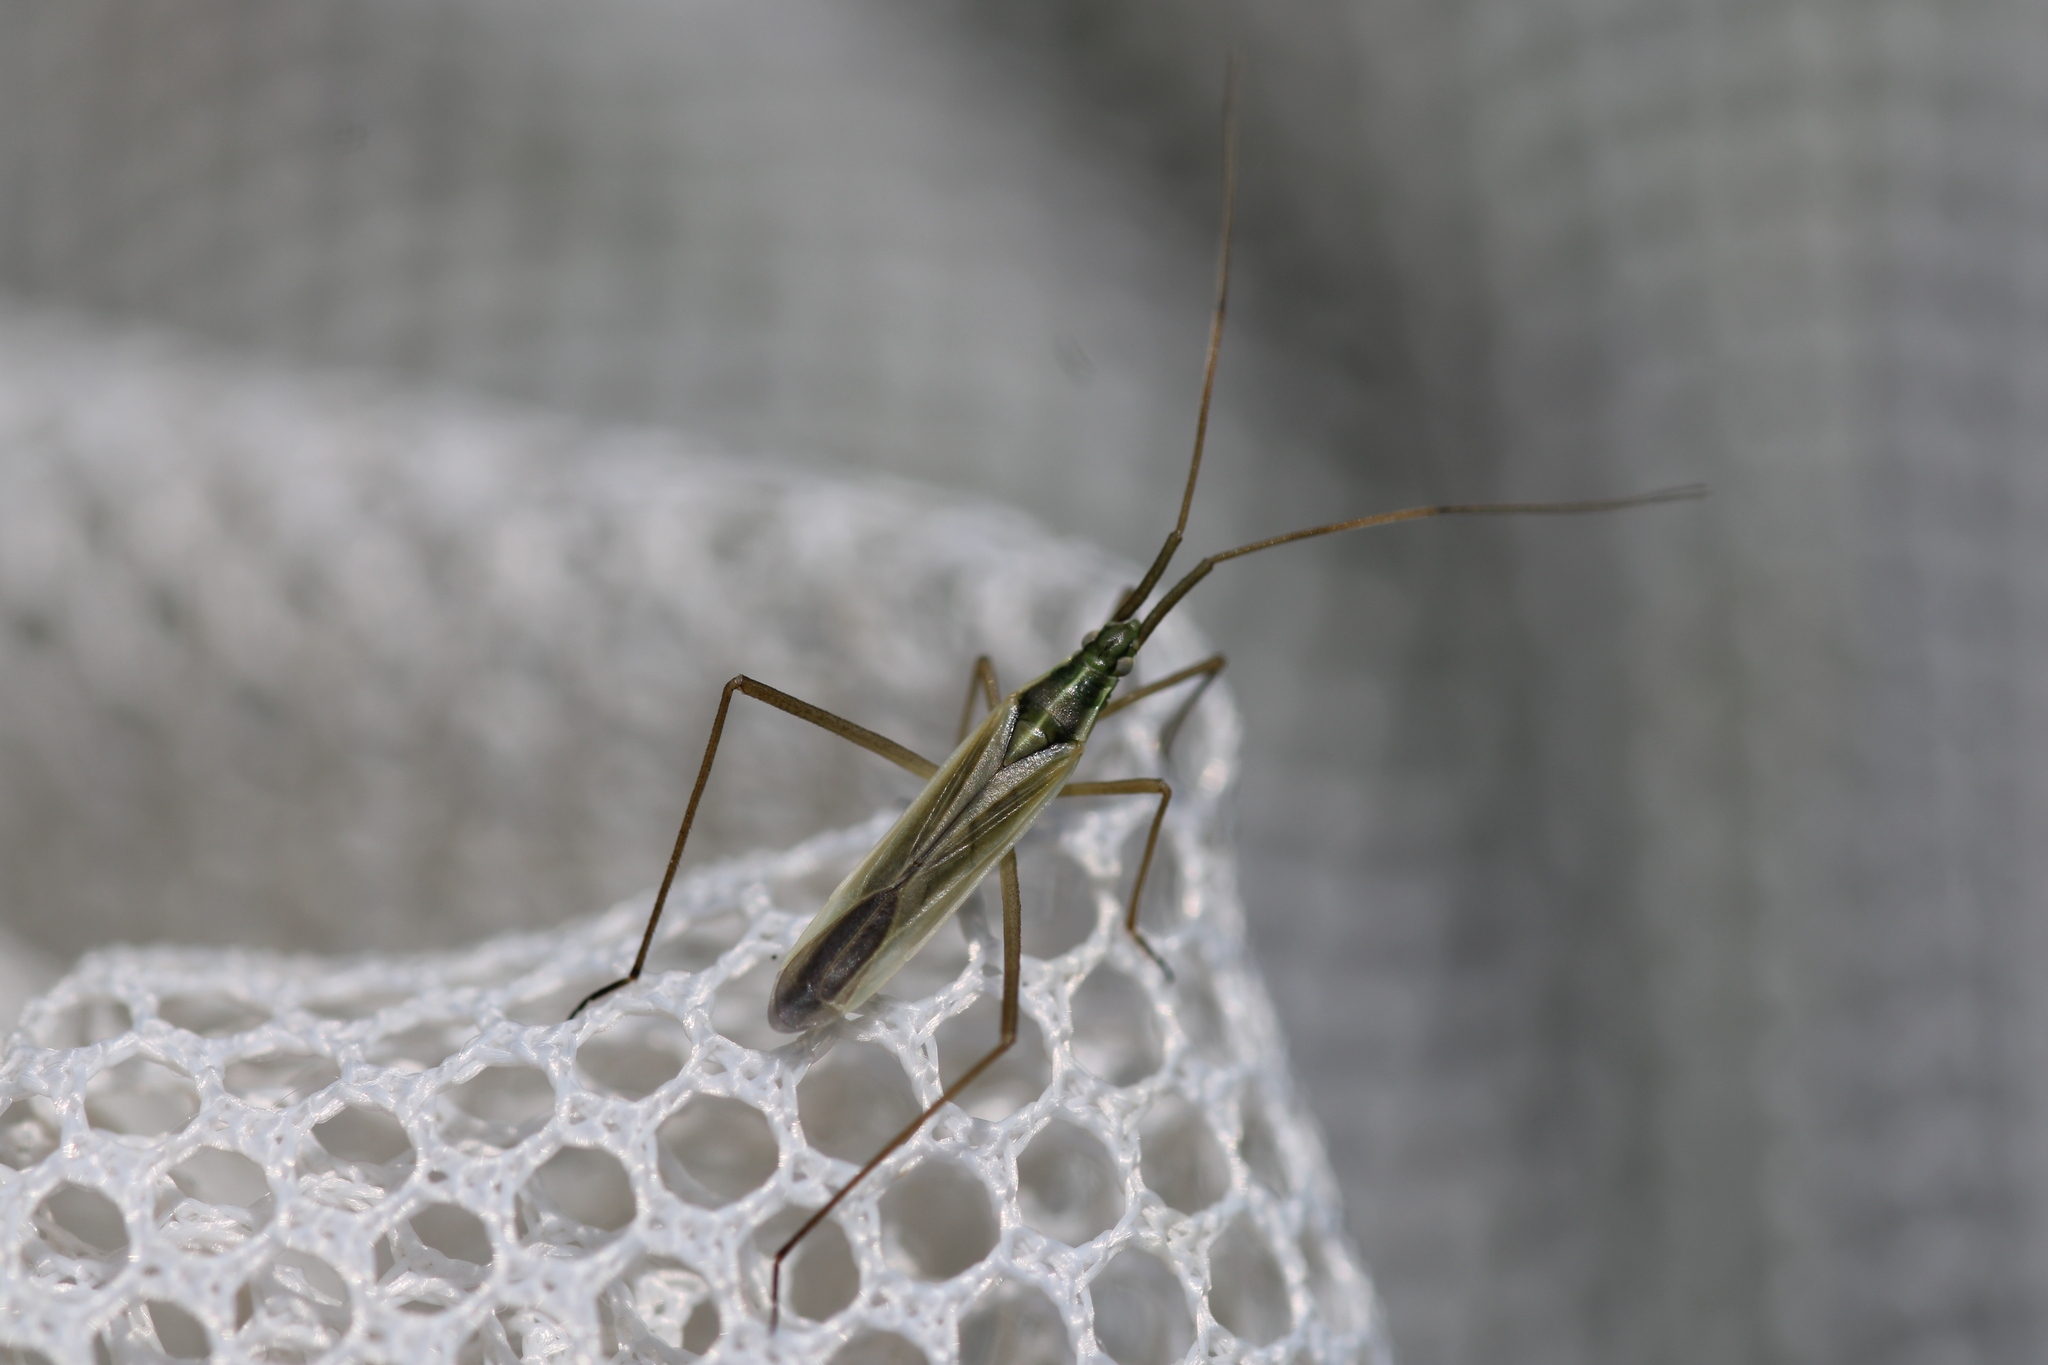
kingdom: Animalia
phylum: Arthropoda
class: Insecta
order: Hemiptera
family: Miridae
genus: Megaloceroea
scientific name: Megaloceroea recticornis
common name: Plant bug
